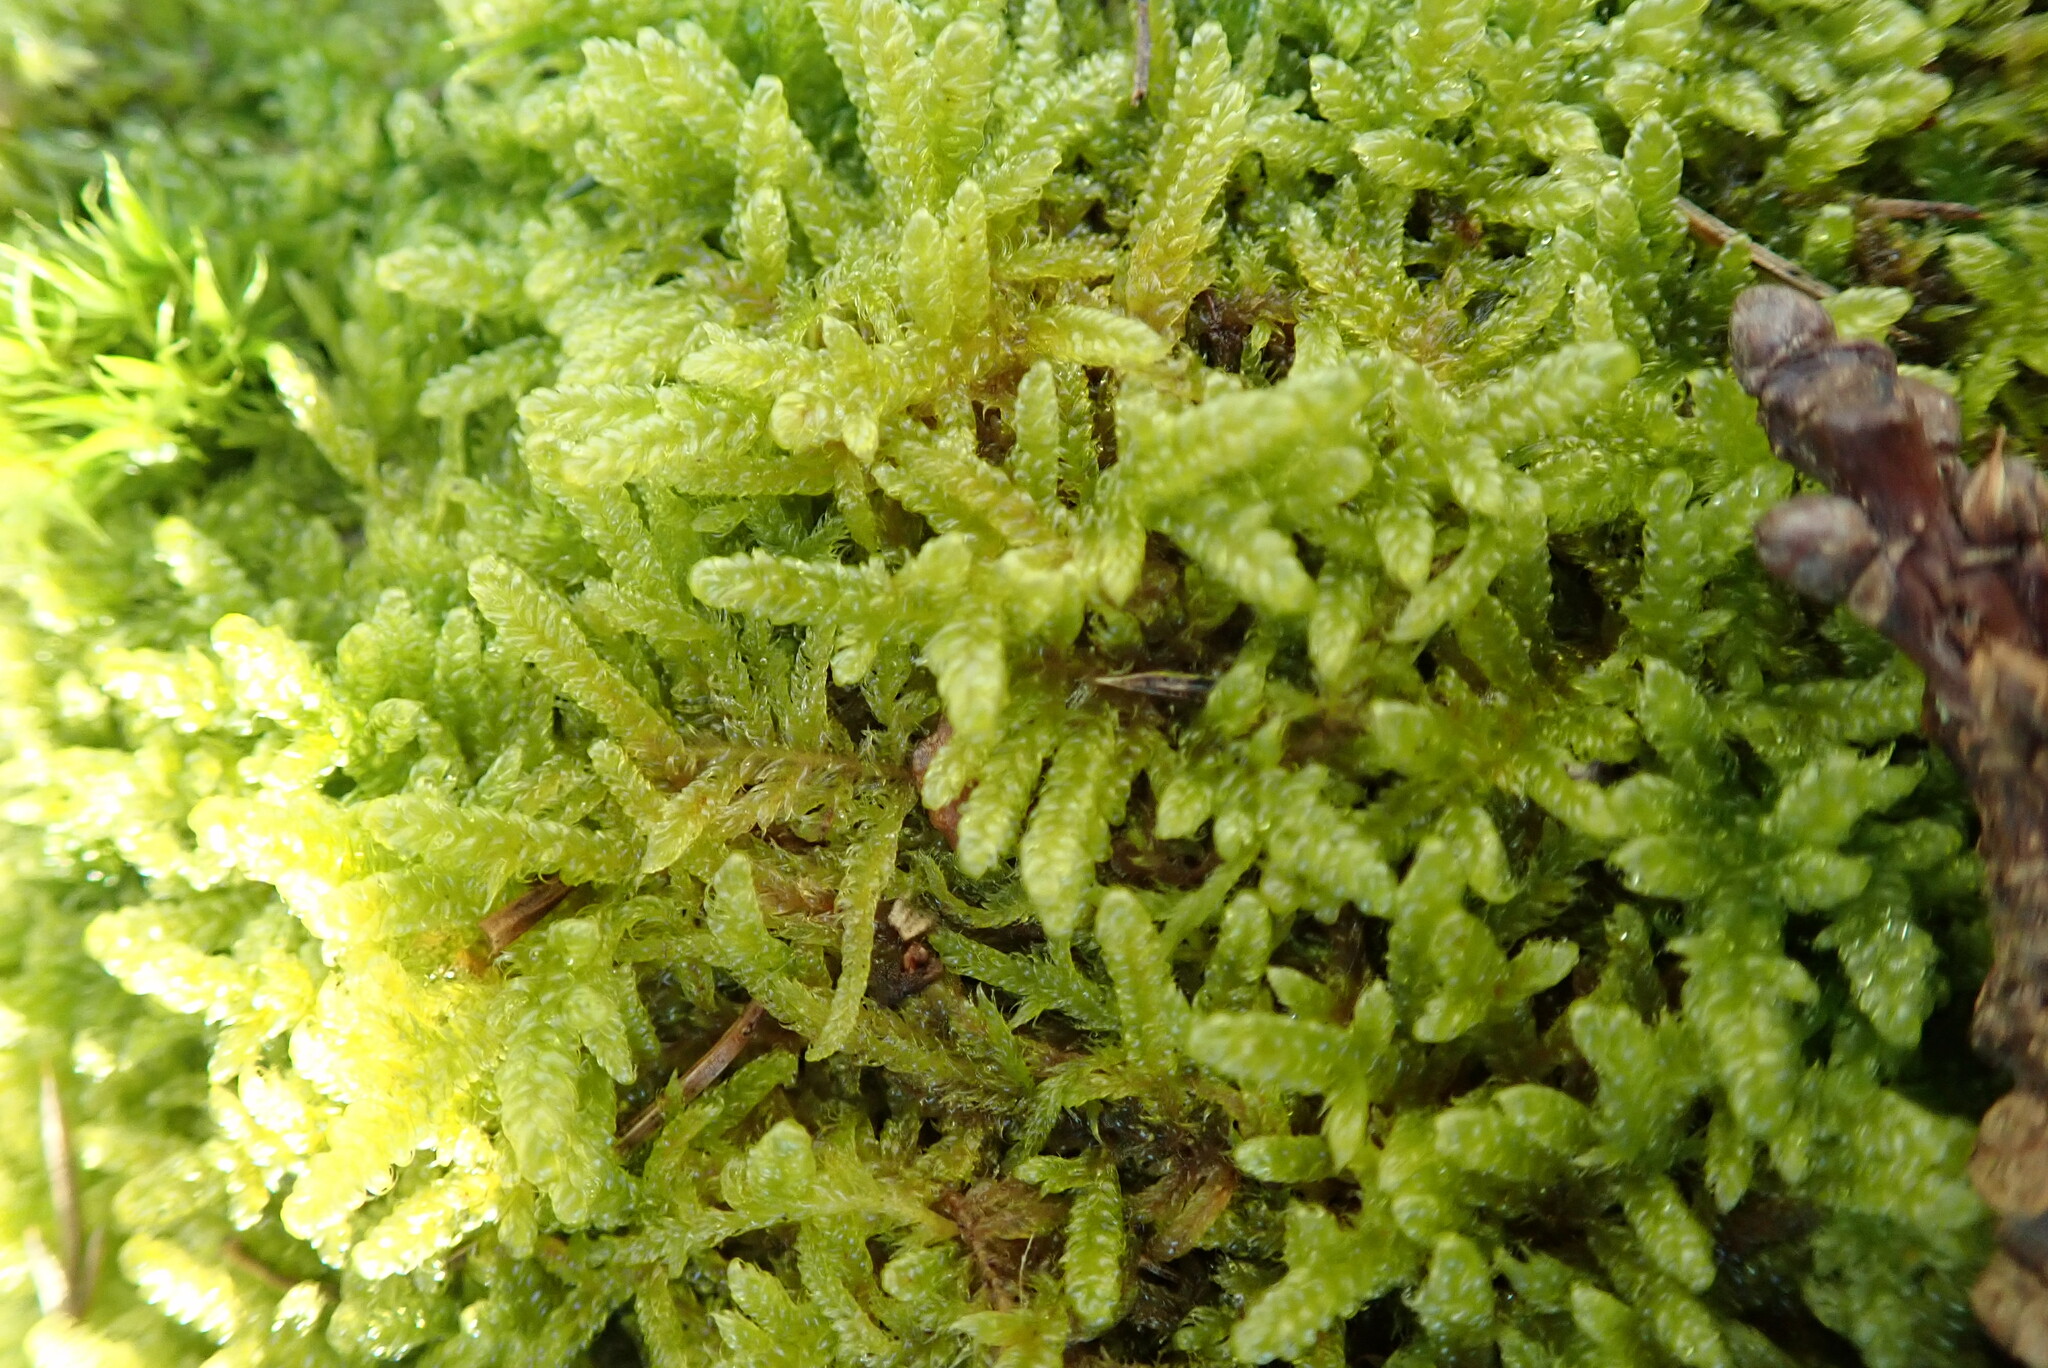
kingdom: Plantae
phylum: Bryophyta
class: Bryopsida
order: Hypnales
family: Hypnaceae
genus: Hypnum
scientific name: Hypnum cupressiforme
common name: Cypress-leaved plait-moss
